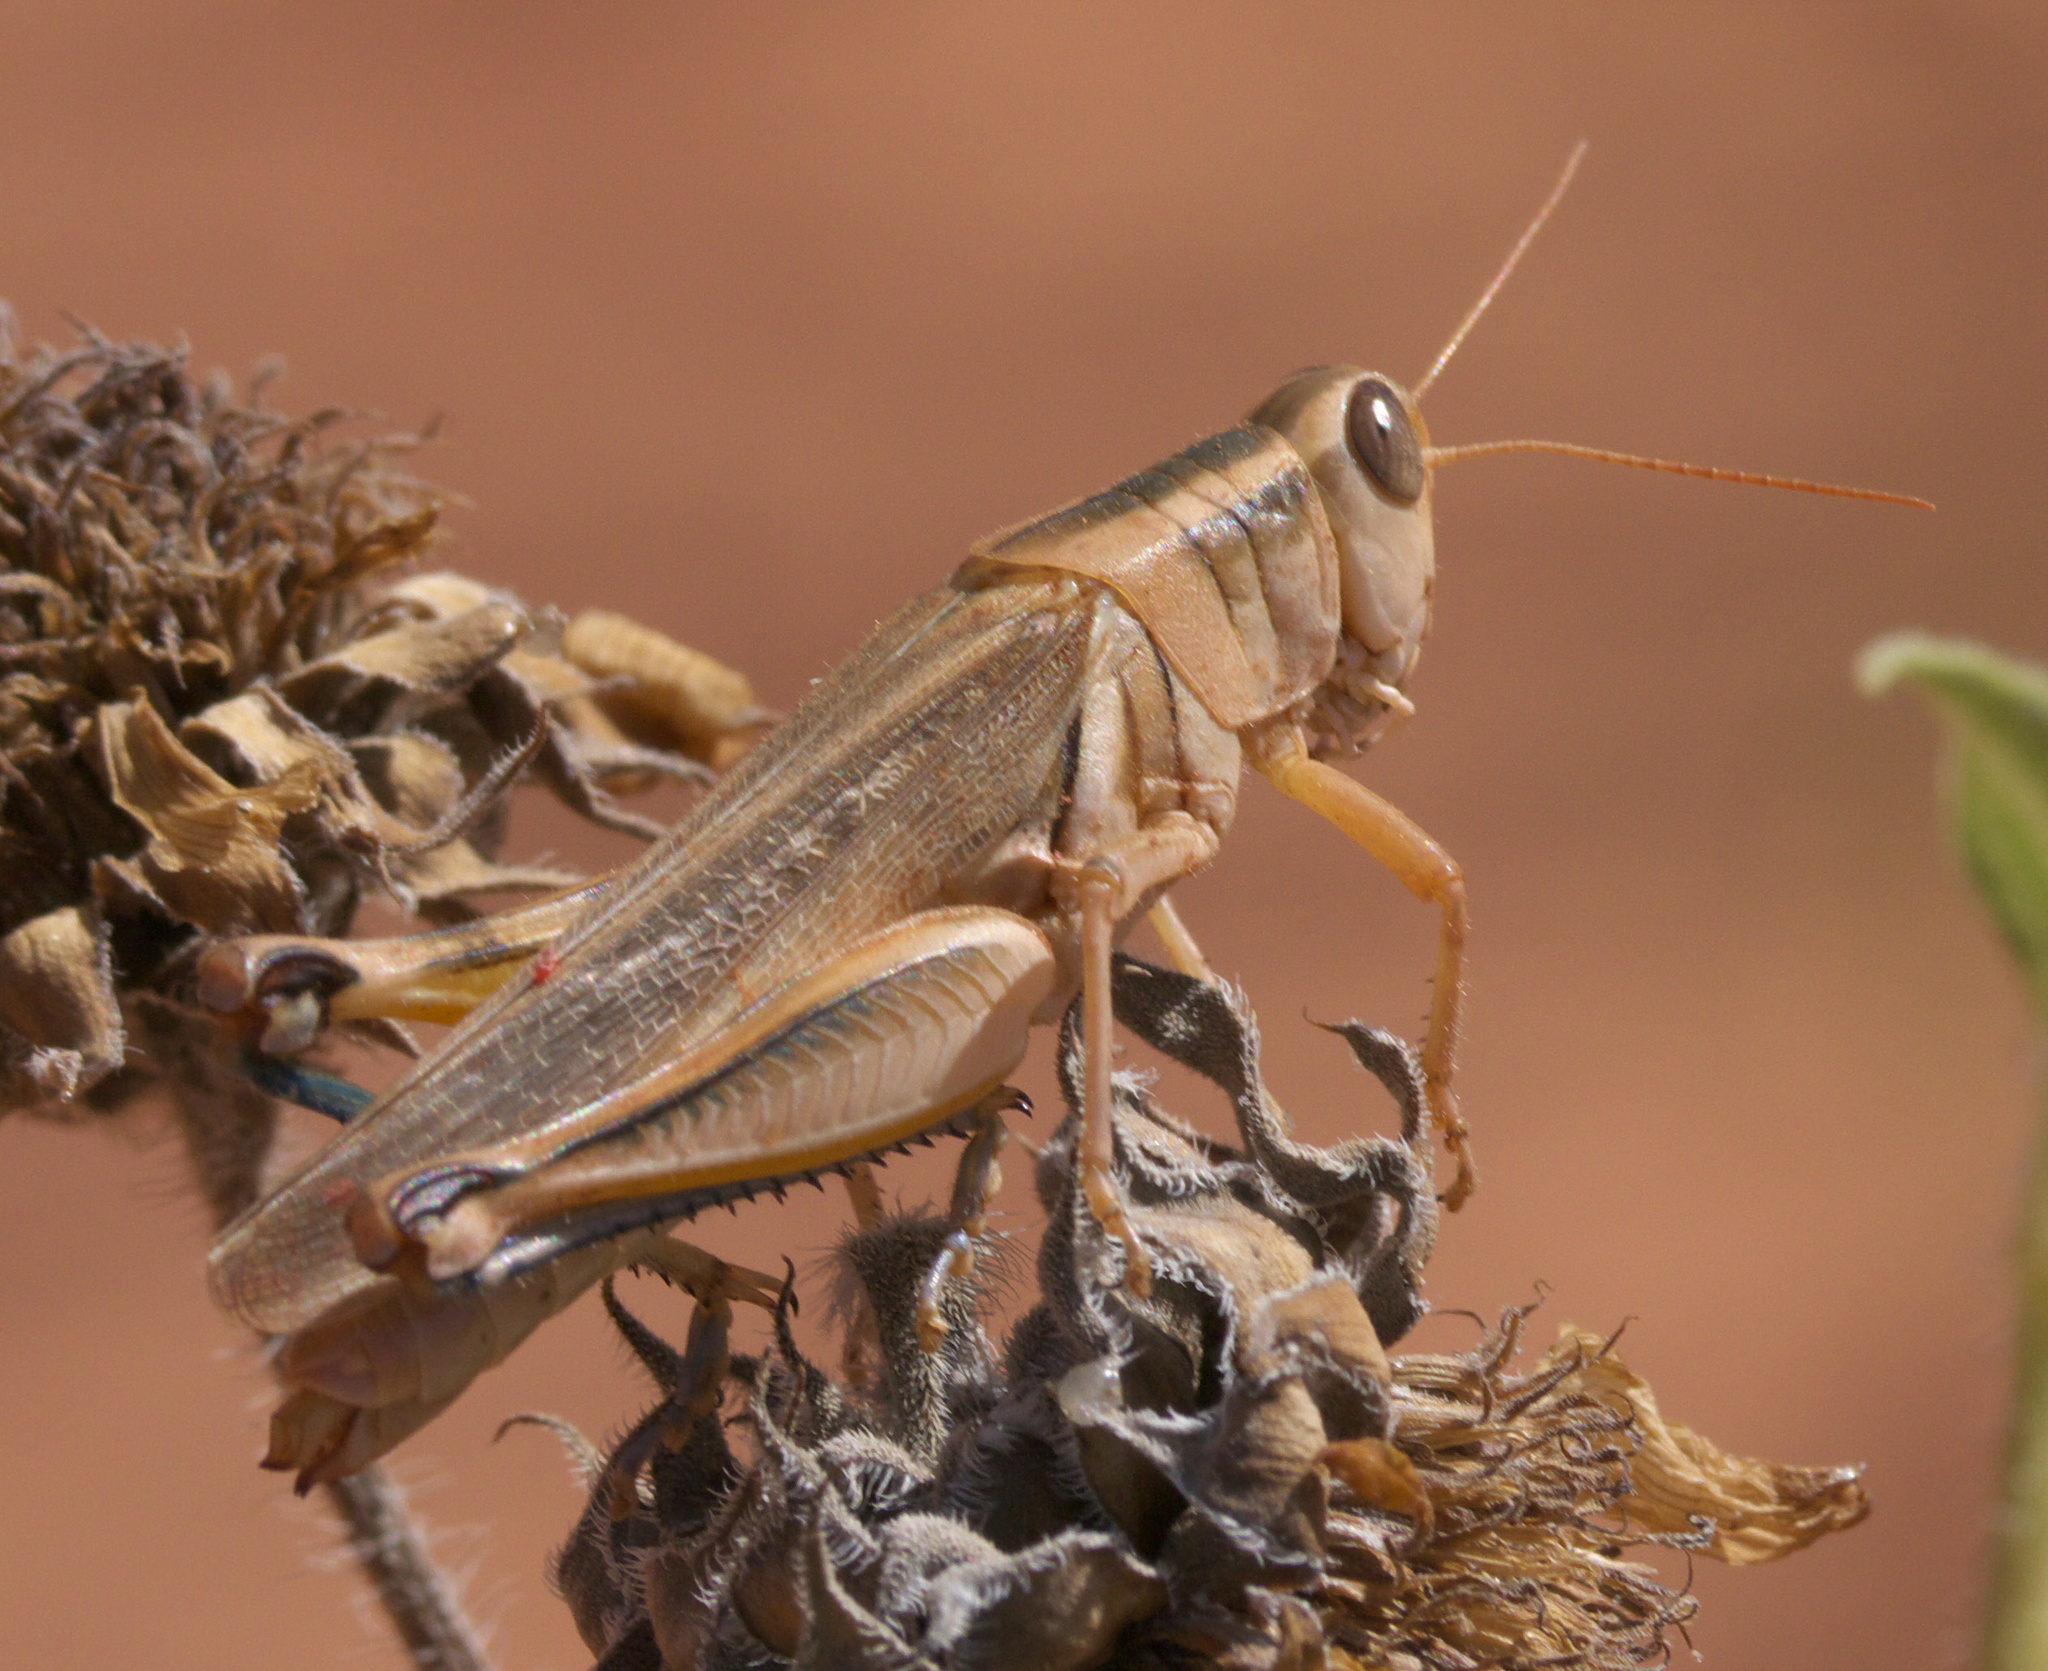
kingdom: Animalia
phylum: Arthropoda
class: Insecta
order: Orthoptera
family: Acrididae
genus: Melanoplus
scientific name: Melanoplus packardii
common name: Packard's grasshopper
